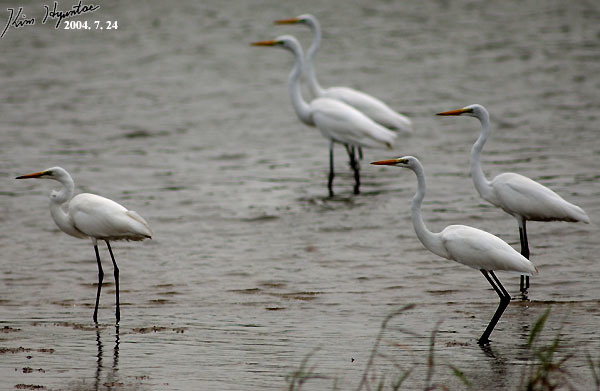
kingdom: Animalia
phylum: Chordata
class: Aves
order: Pelecaniformes
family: Ardeidae
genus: Ardea
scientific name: Ardea alba
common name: Great egret
